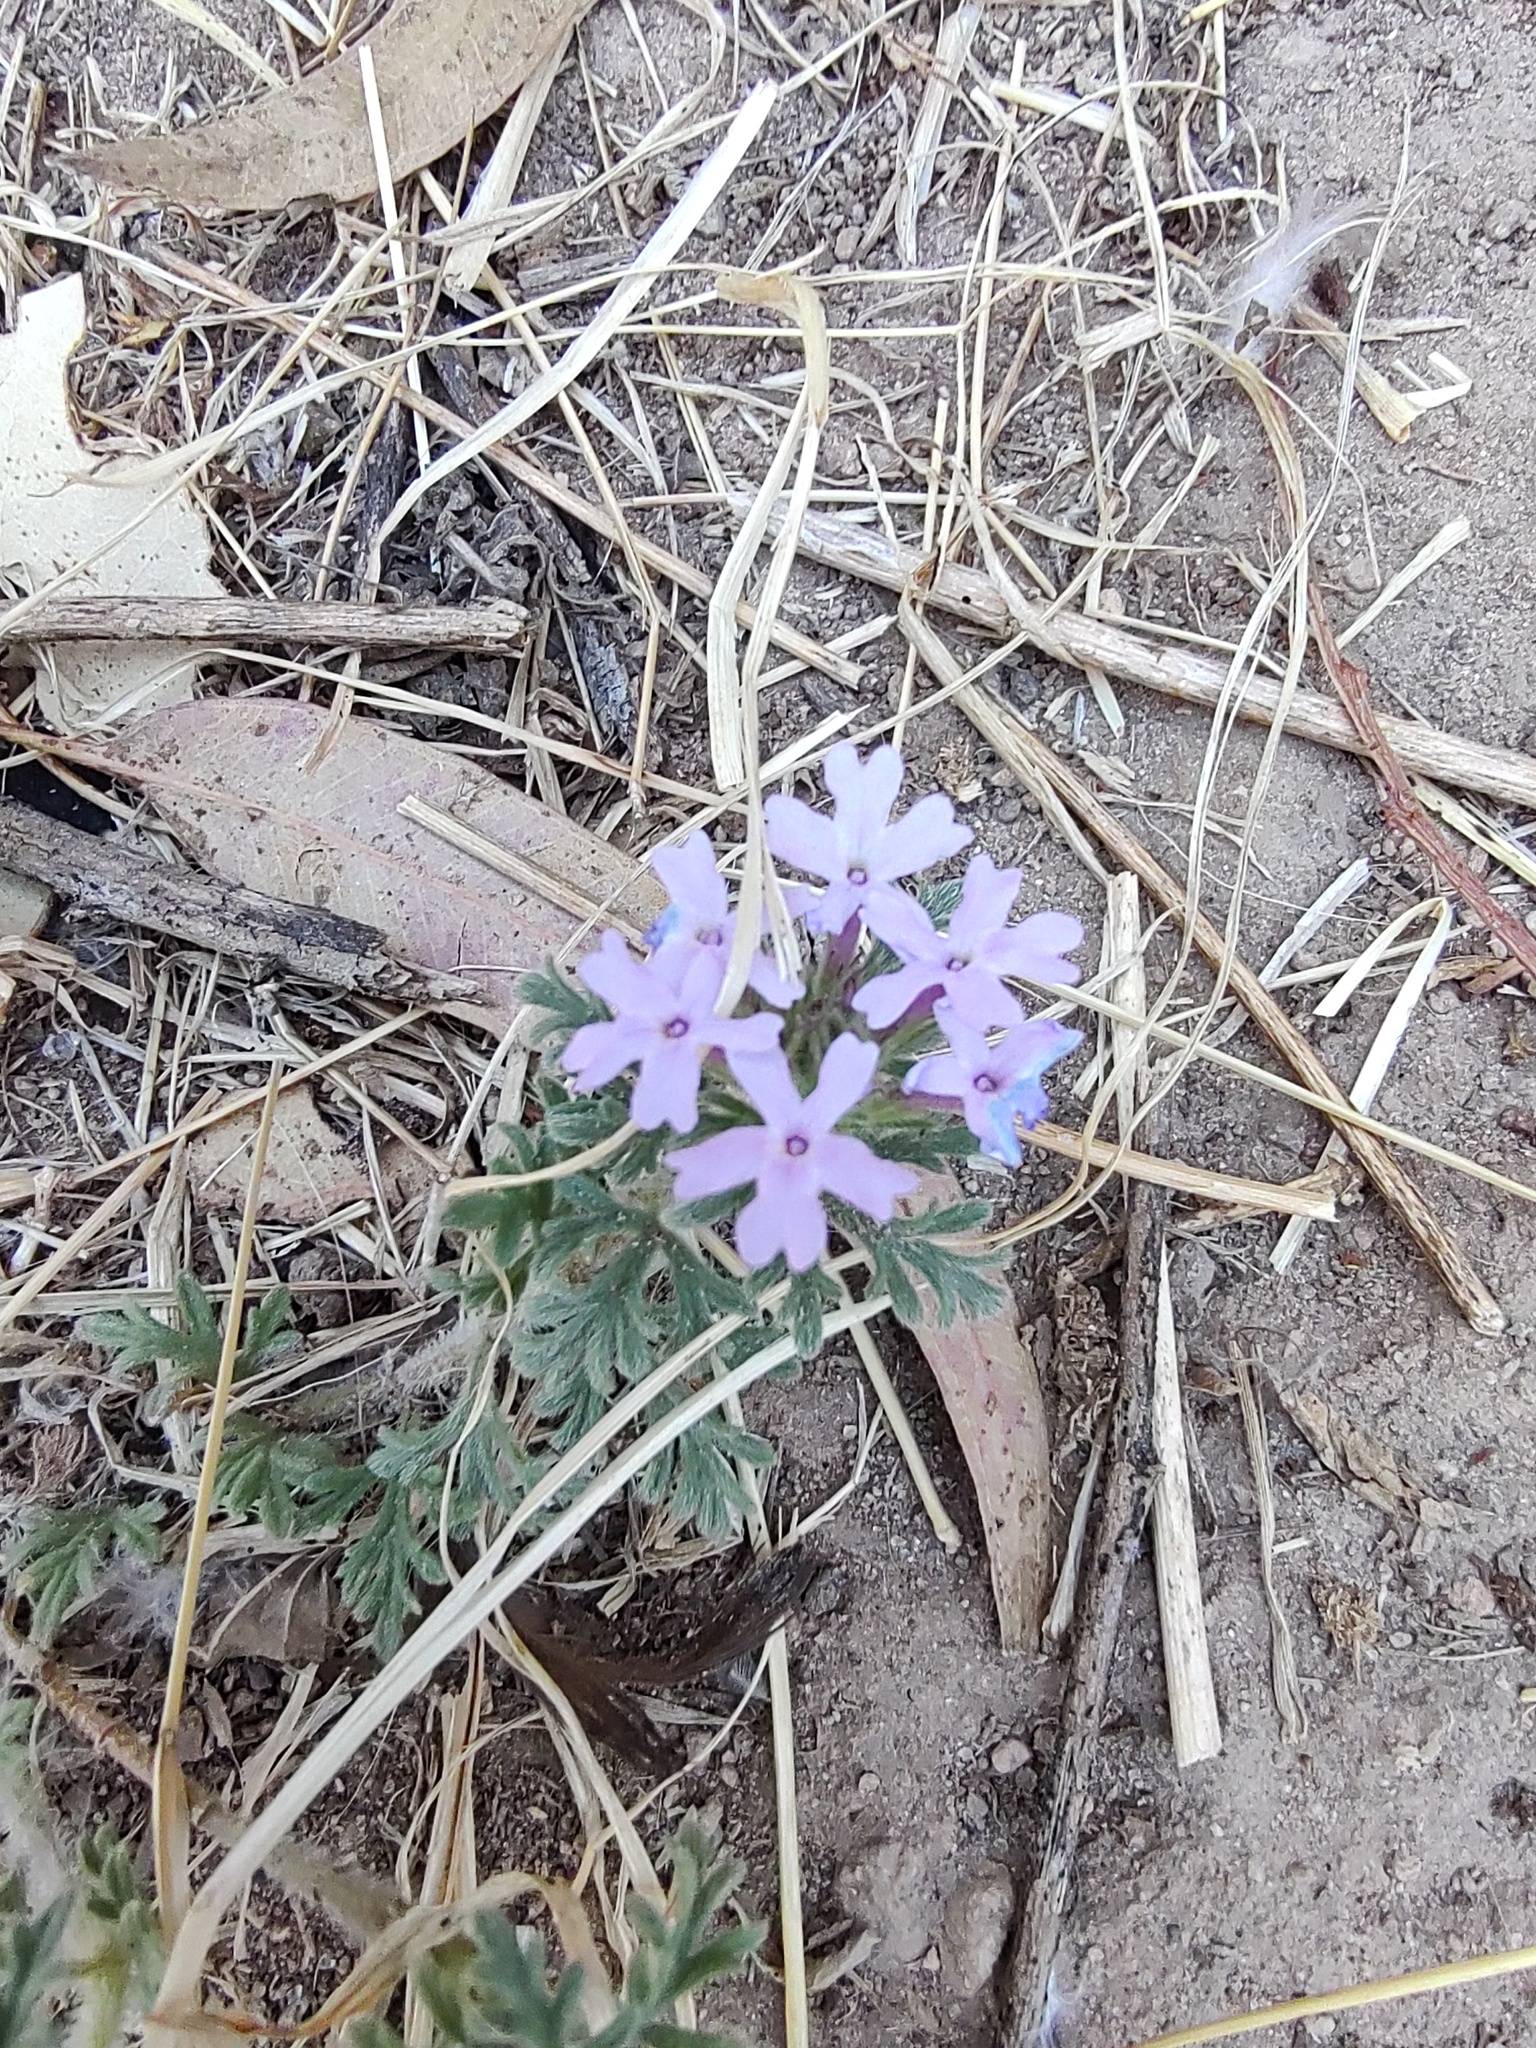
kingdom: Plantae
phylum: Tracheophyta
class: Magnoliopsida
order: Lamiales
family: Verbenaceae
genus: Verbena
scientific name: Verbena bipinnatifida
